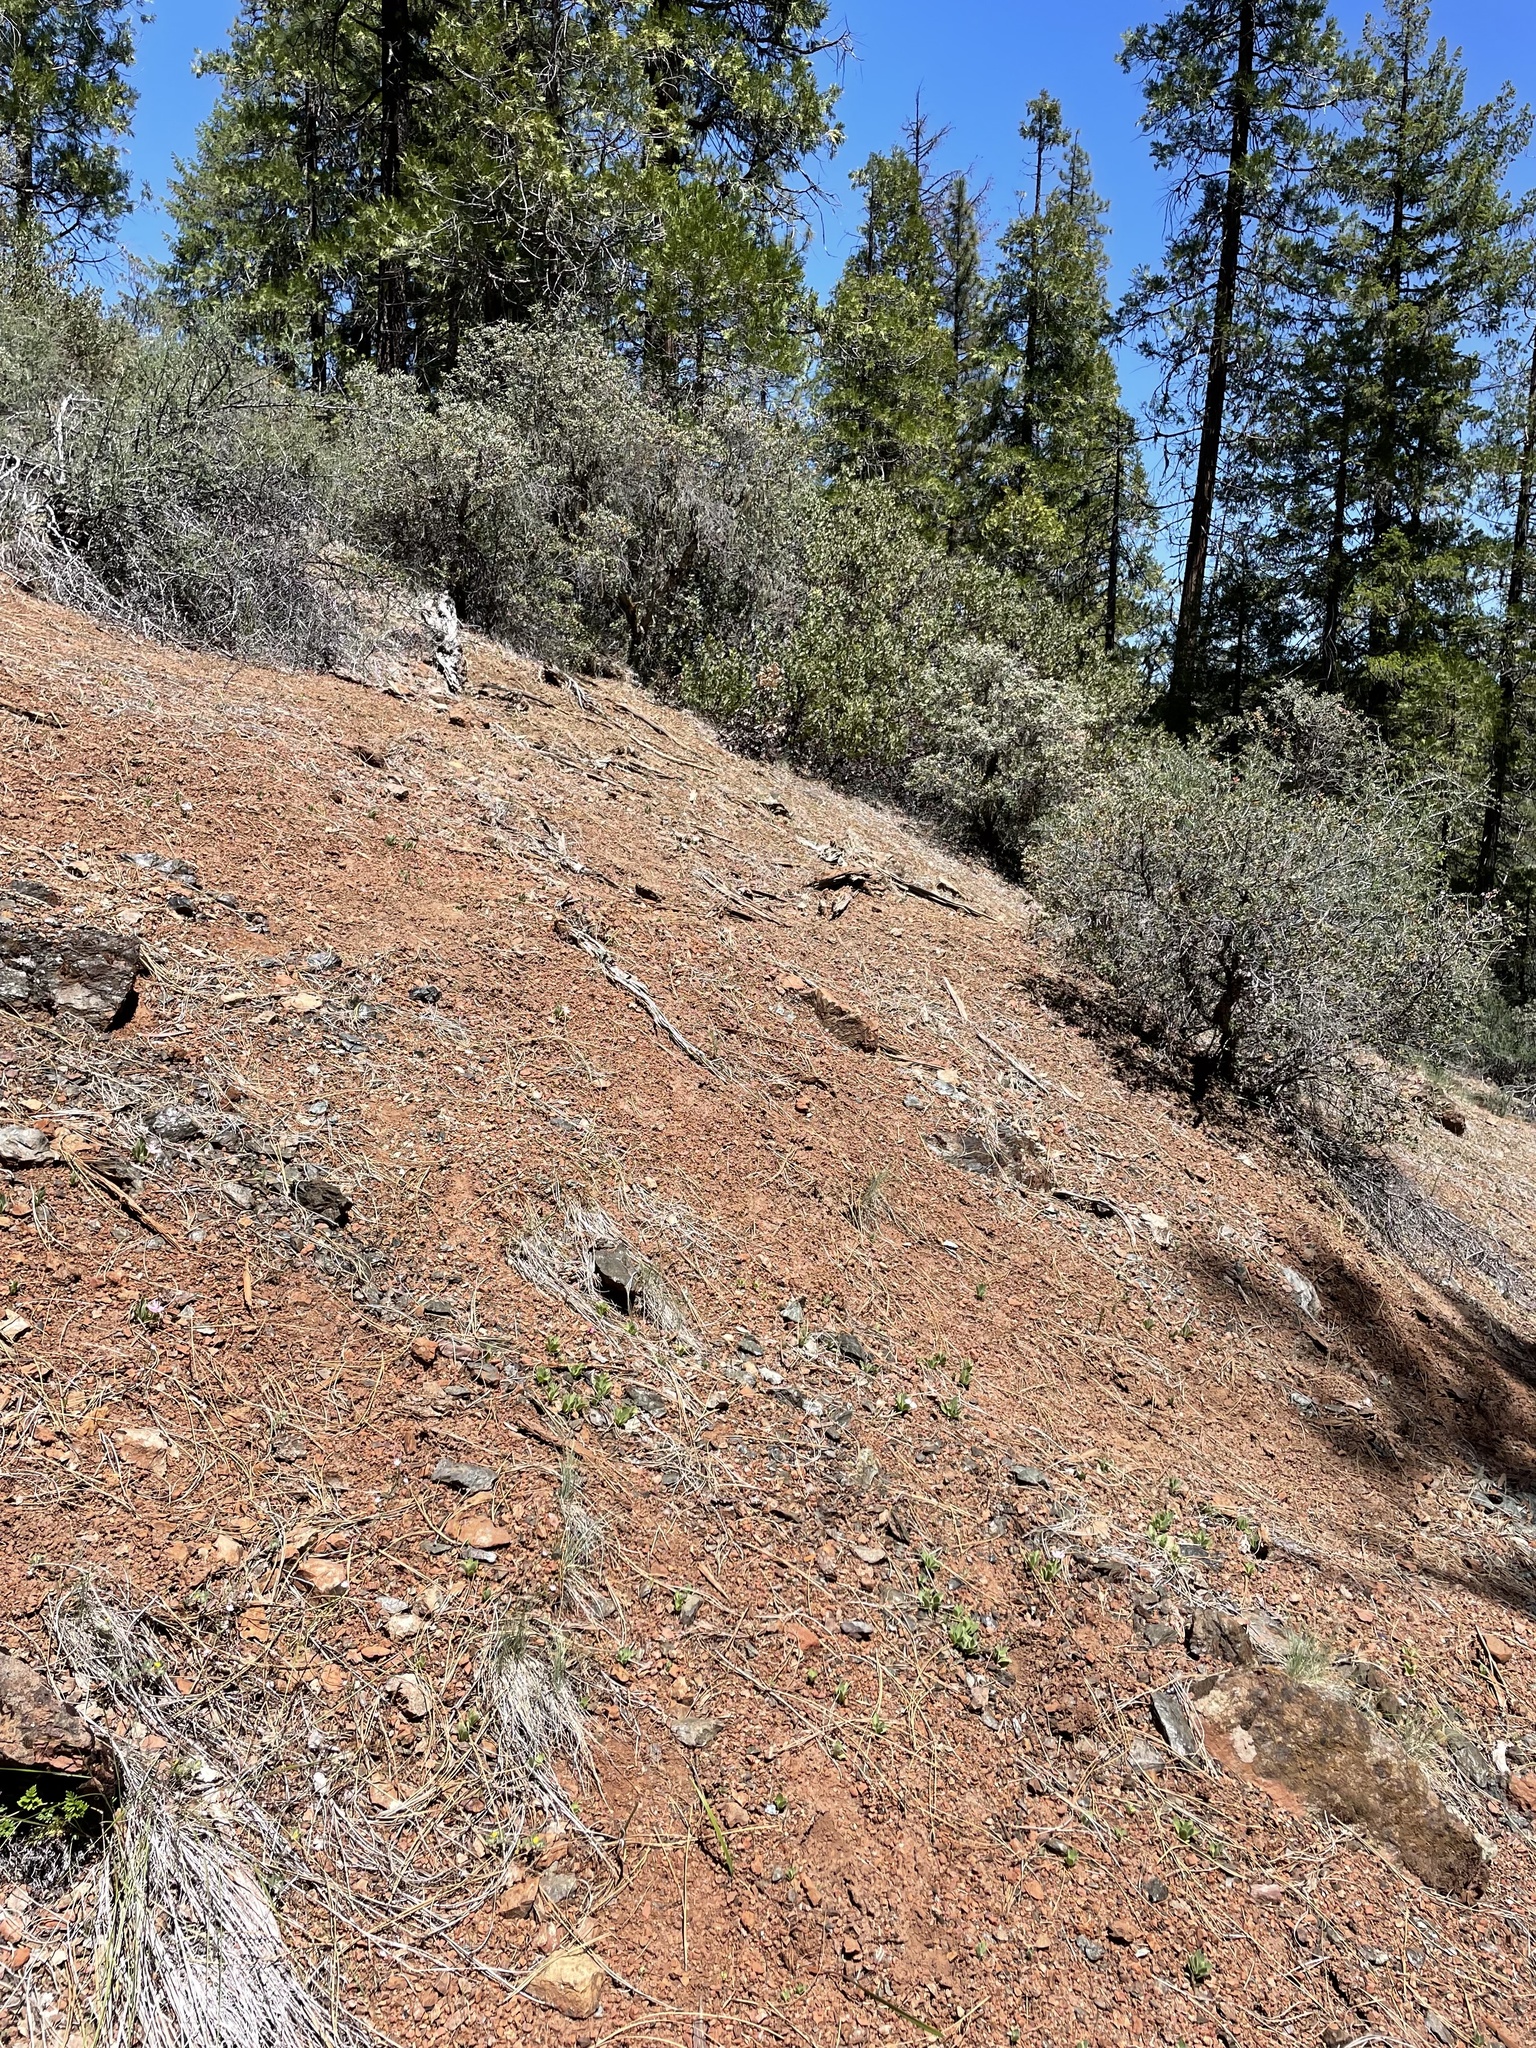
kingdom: Plantae
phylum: Tracheophyta
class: Magnoliopsida
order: Caryophyllales
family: Caryophyllaceae
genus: Silene
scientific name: Silene hookeri
